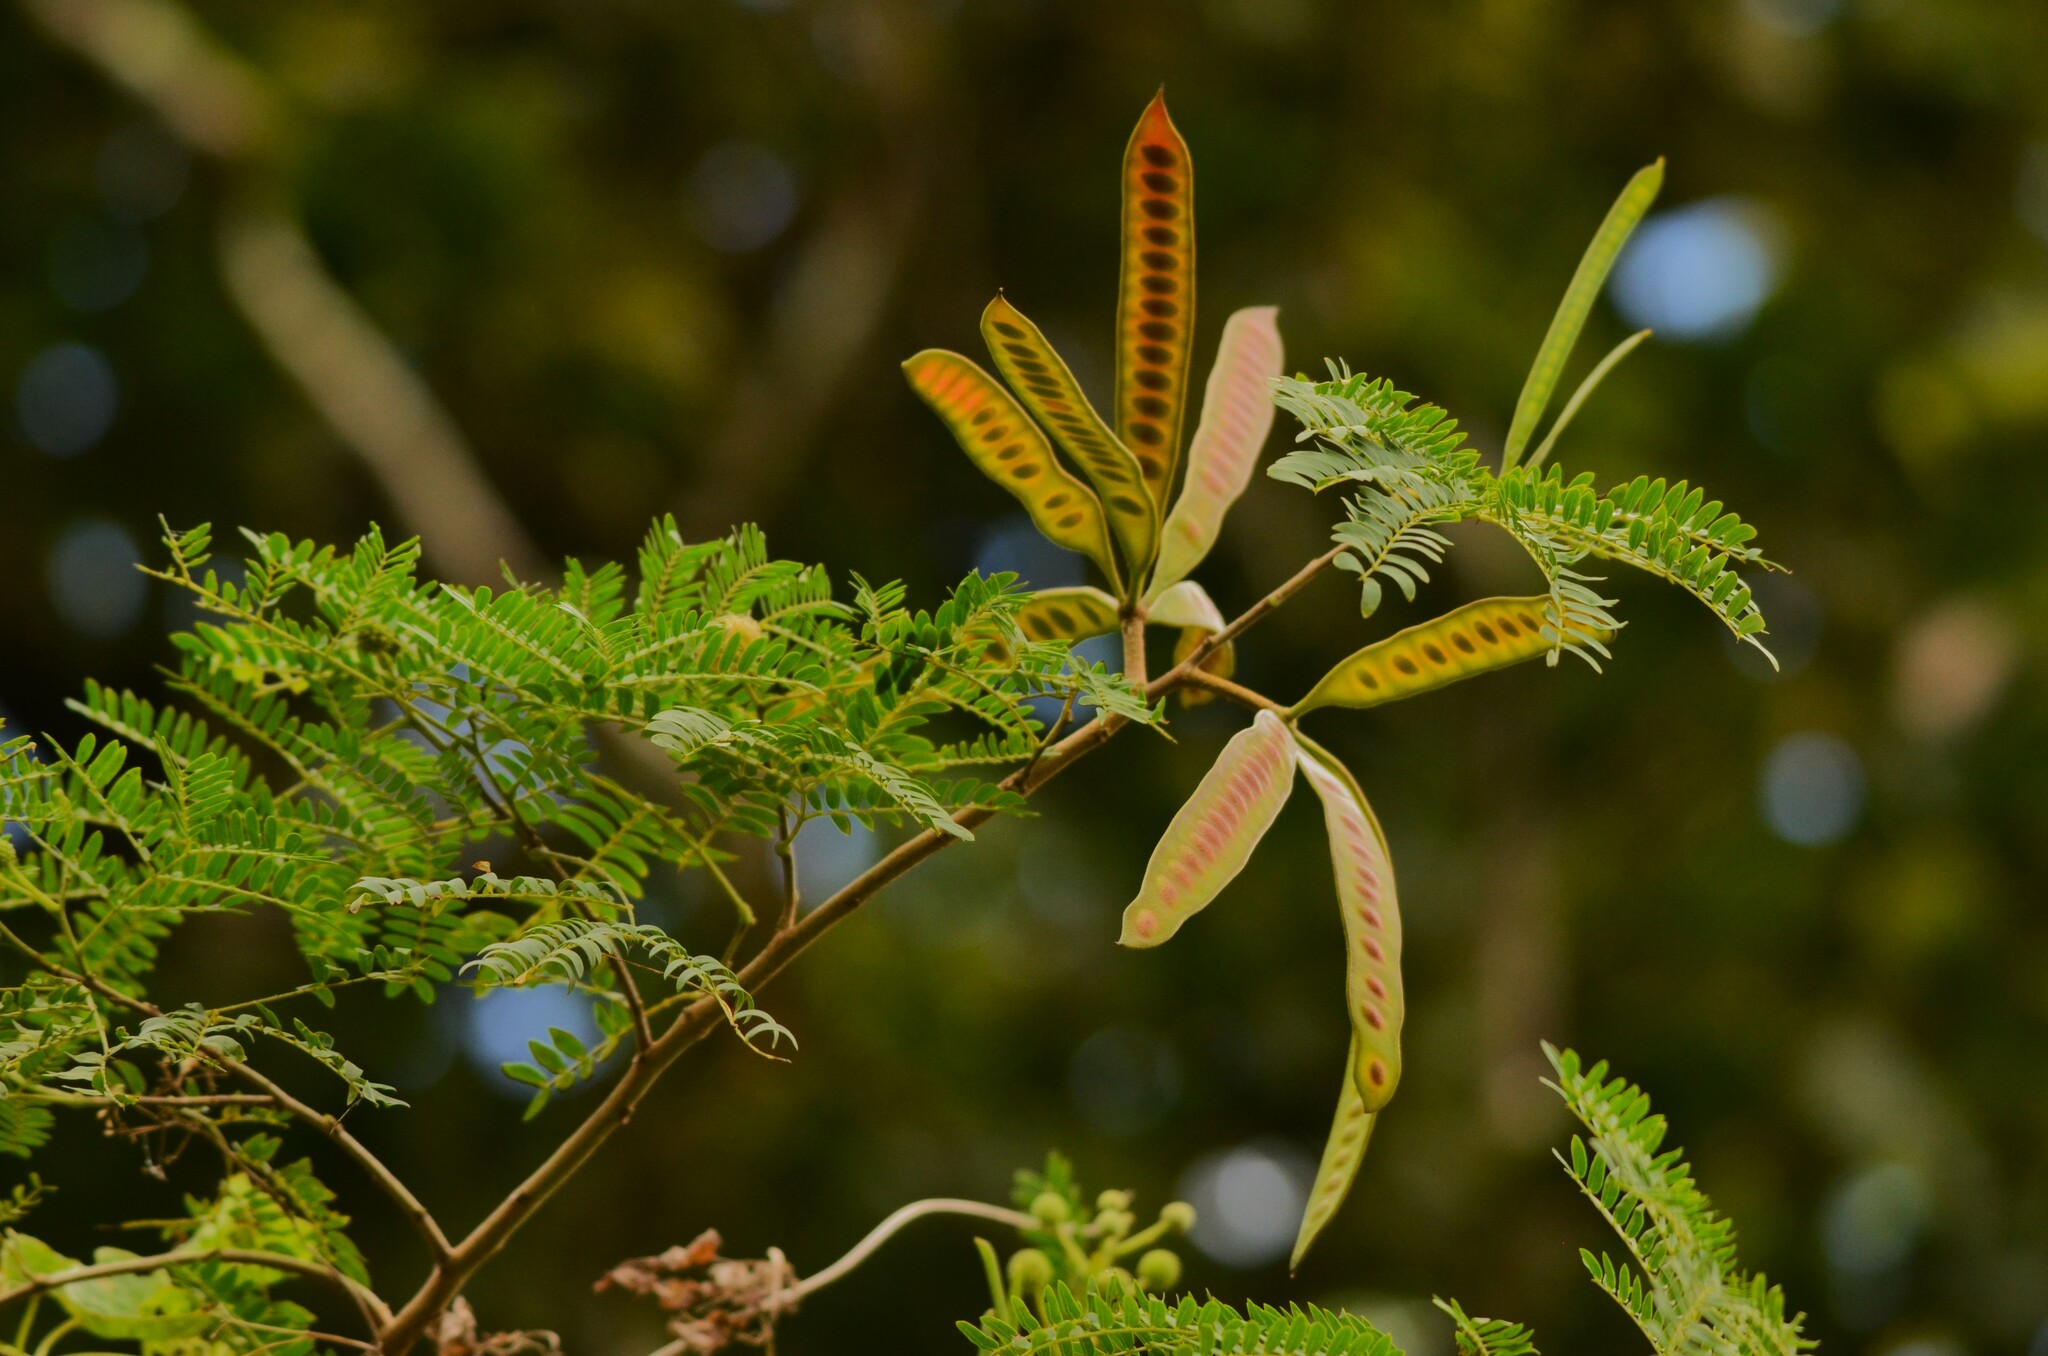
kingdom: Plantae
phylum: Tracheophyta
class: Magnoliopsida
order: Fabales
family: Fabaceae
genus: Leucaena
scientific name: Leucaena leucocephala
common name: White leadtree
